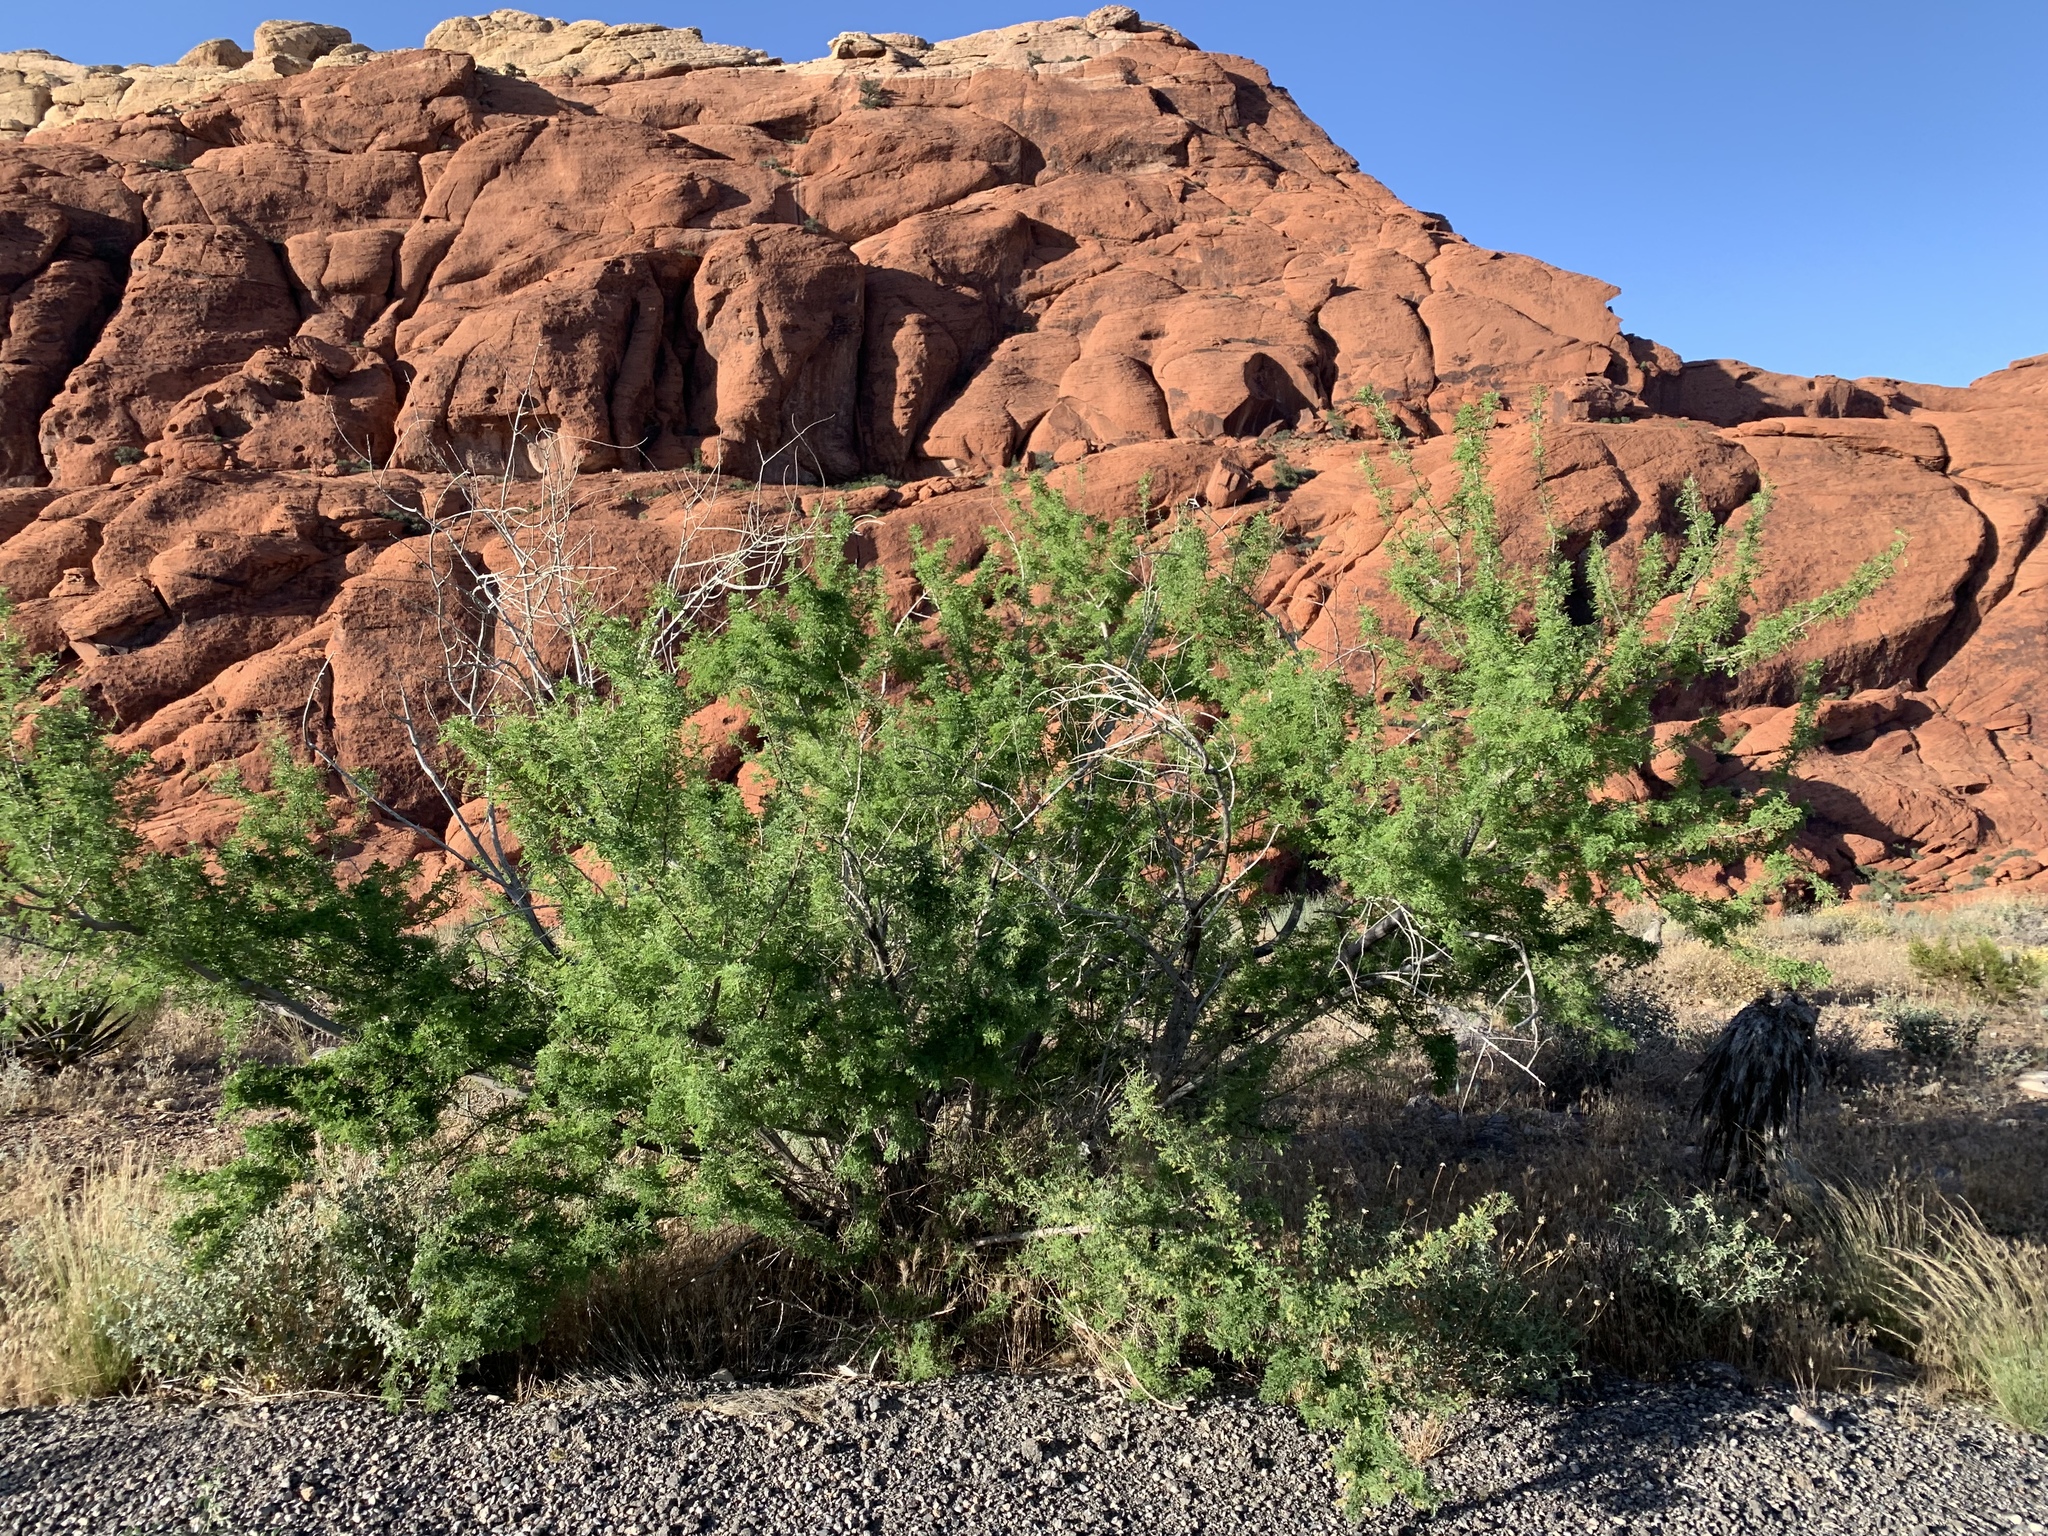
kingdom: Plantae
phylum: Tracheophyta
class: Magnoliopsida
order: Fabales
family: Fabaceae
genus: Senegalia
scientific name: Senegalia greggii
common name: Texas-mimosa
